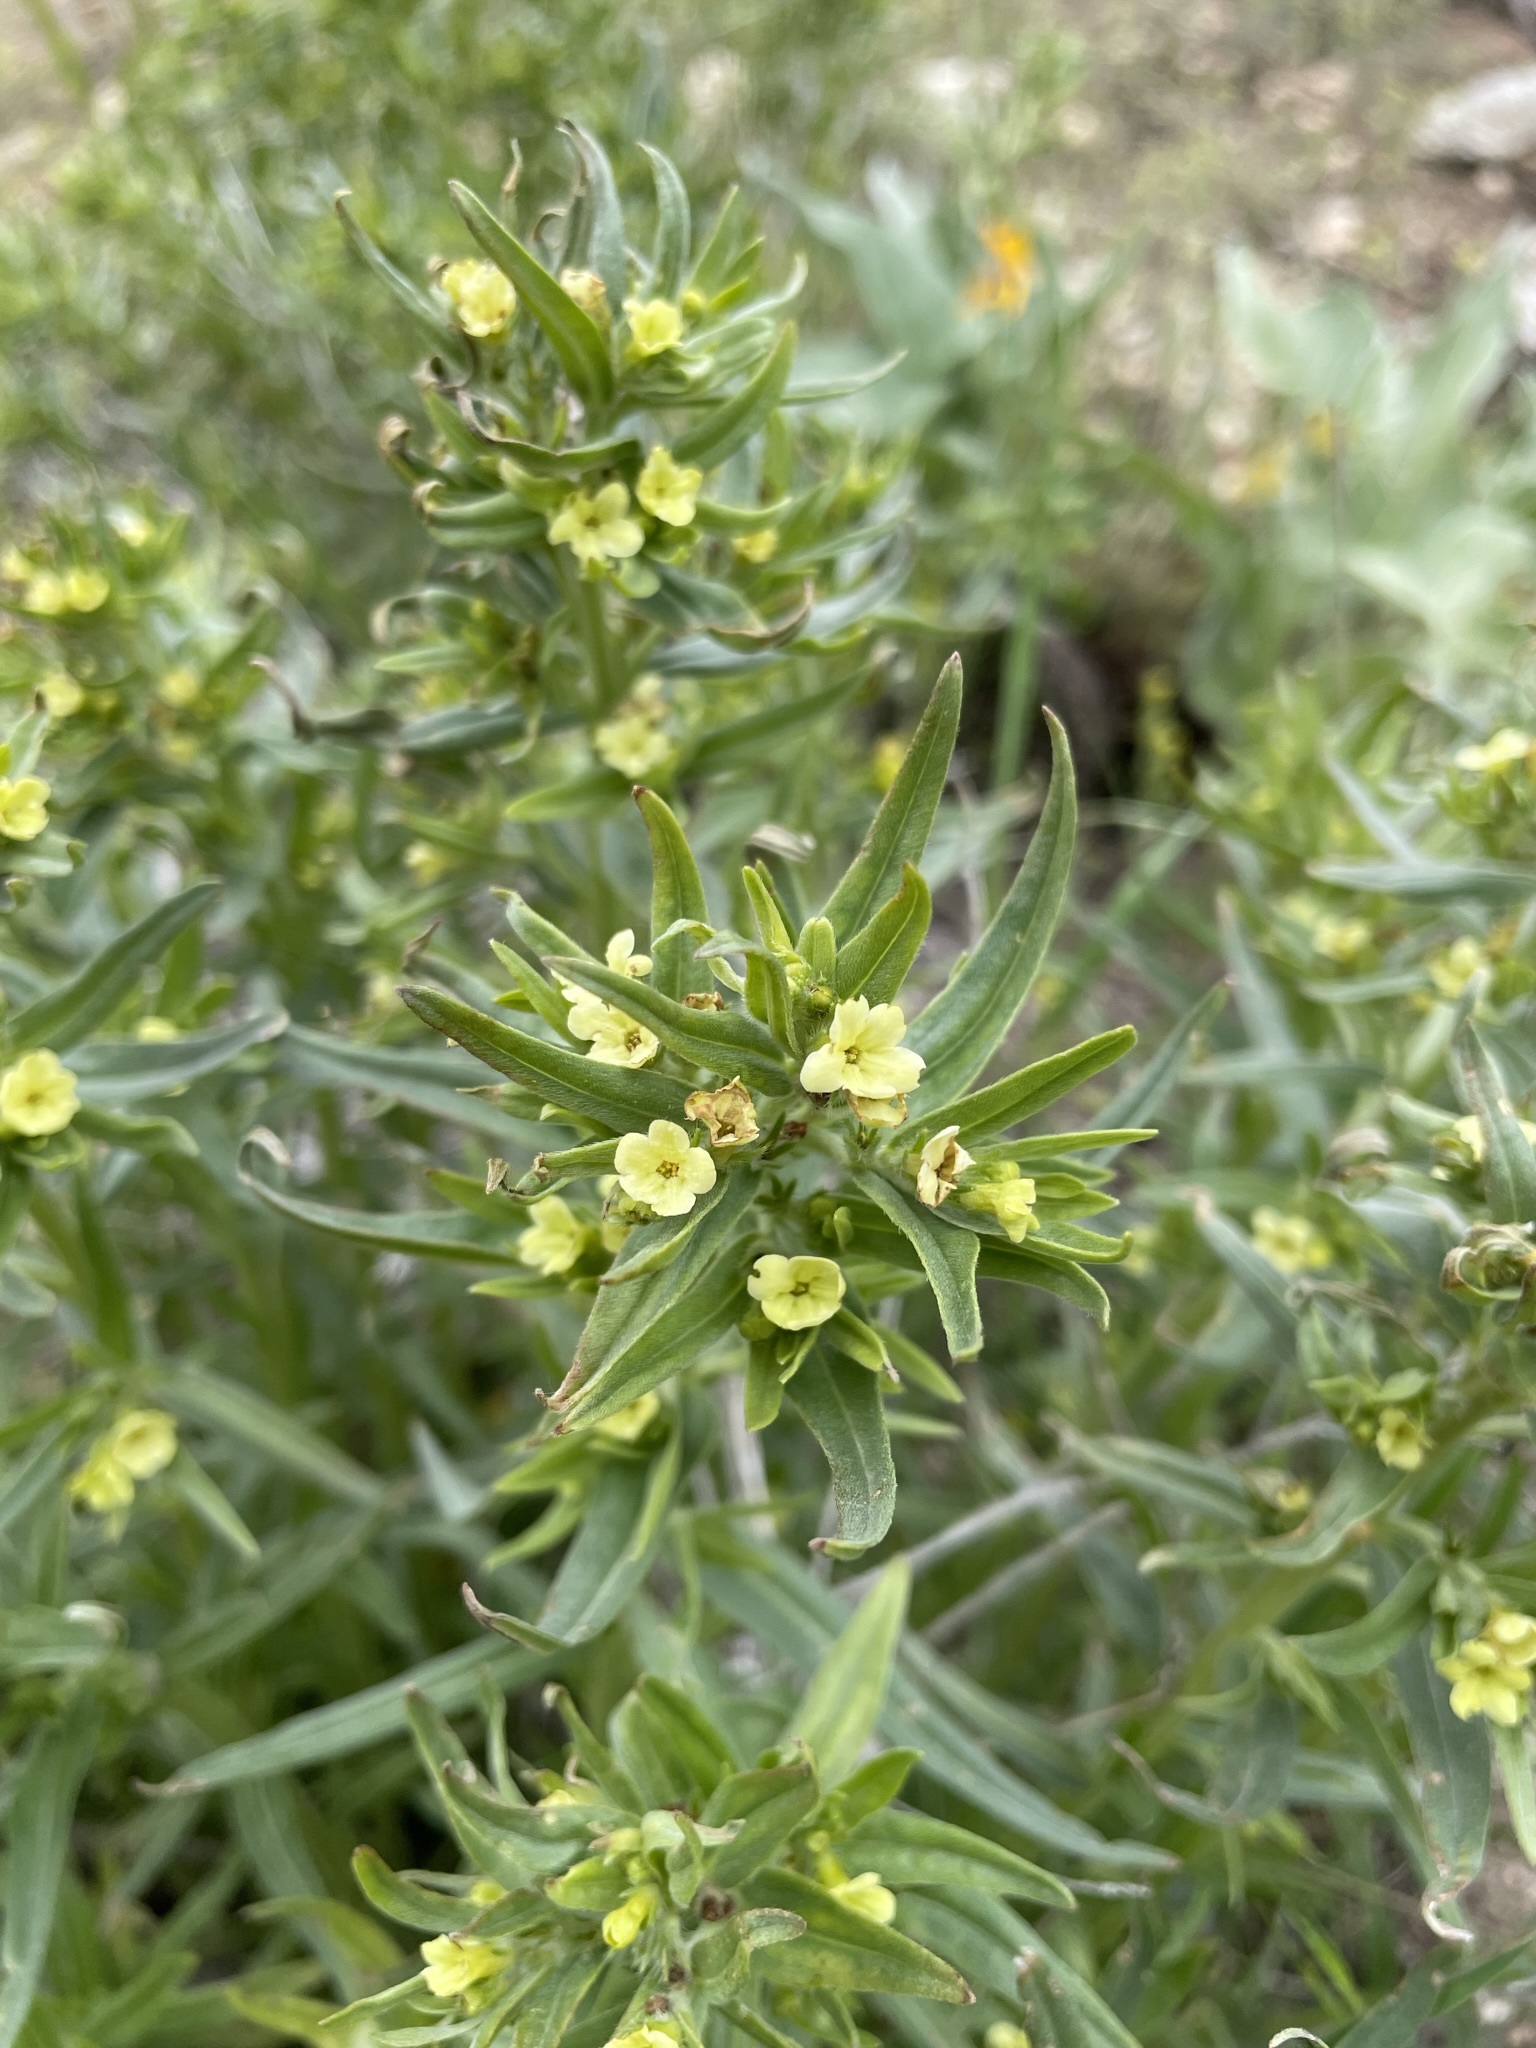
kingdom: Plantae
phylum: Tracheophyta
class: Magnoliopsida
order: Boraginales
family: Boraginaceae
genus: Lithospermum
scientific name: Lithospermum ruderale
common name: Western gromwell
